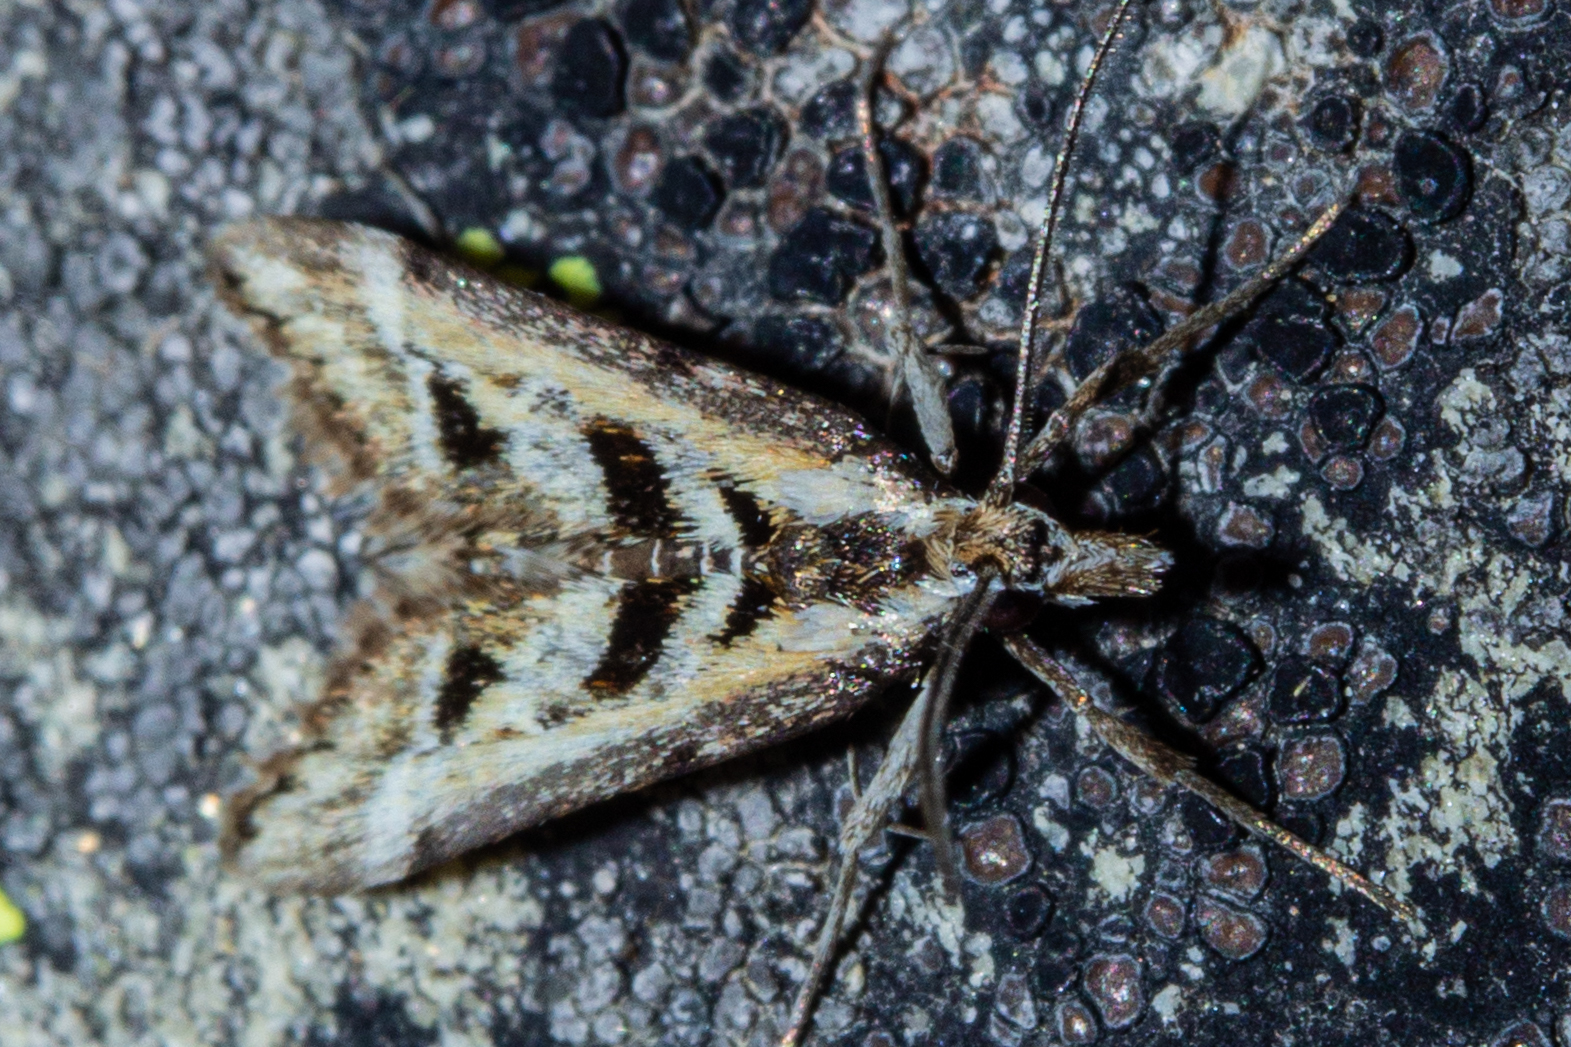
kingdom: Animalia
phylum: Arthropoda
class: Insecta
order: Lepidoptera
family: Crambidae
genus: Diasemia
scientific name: Diasemia grammalis
